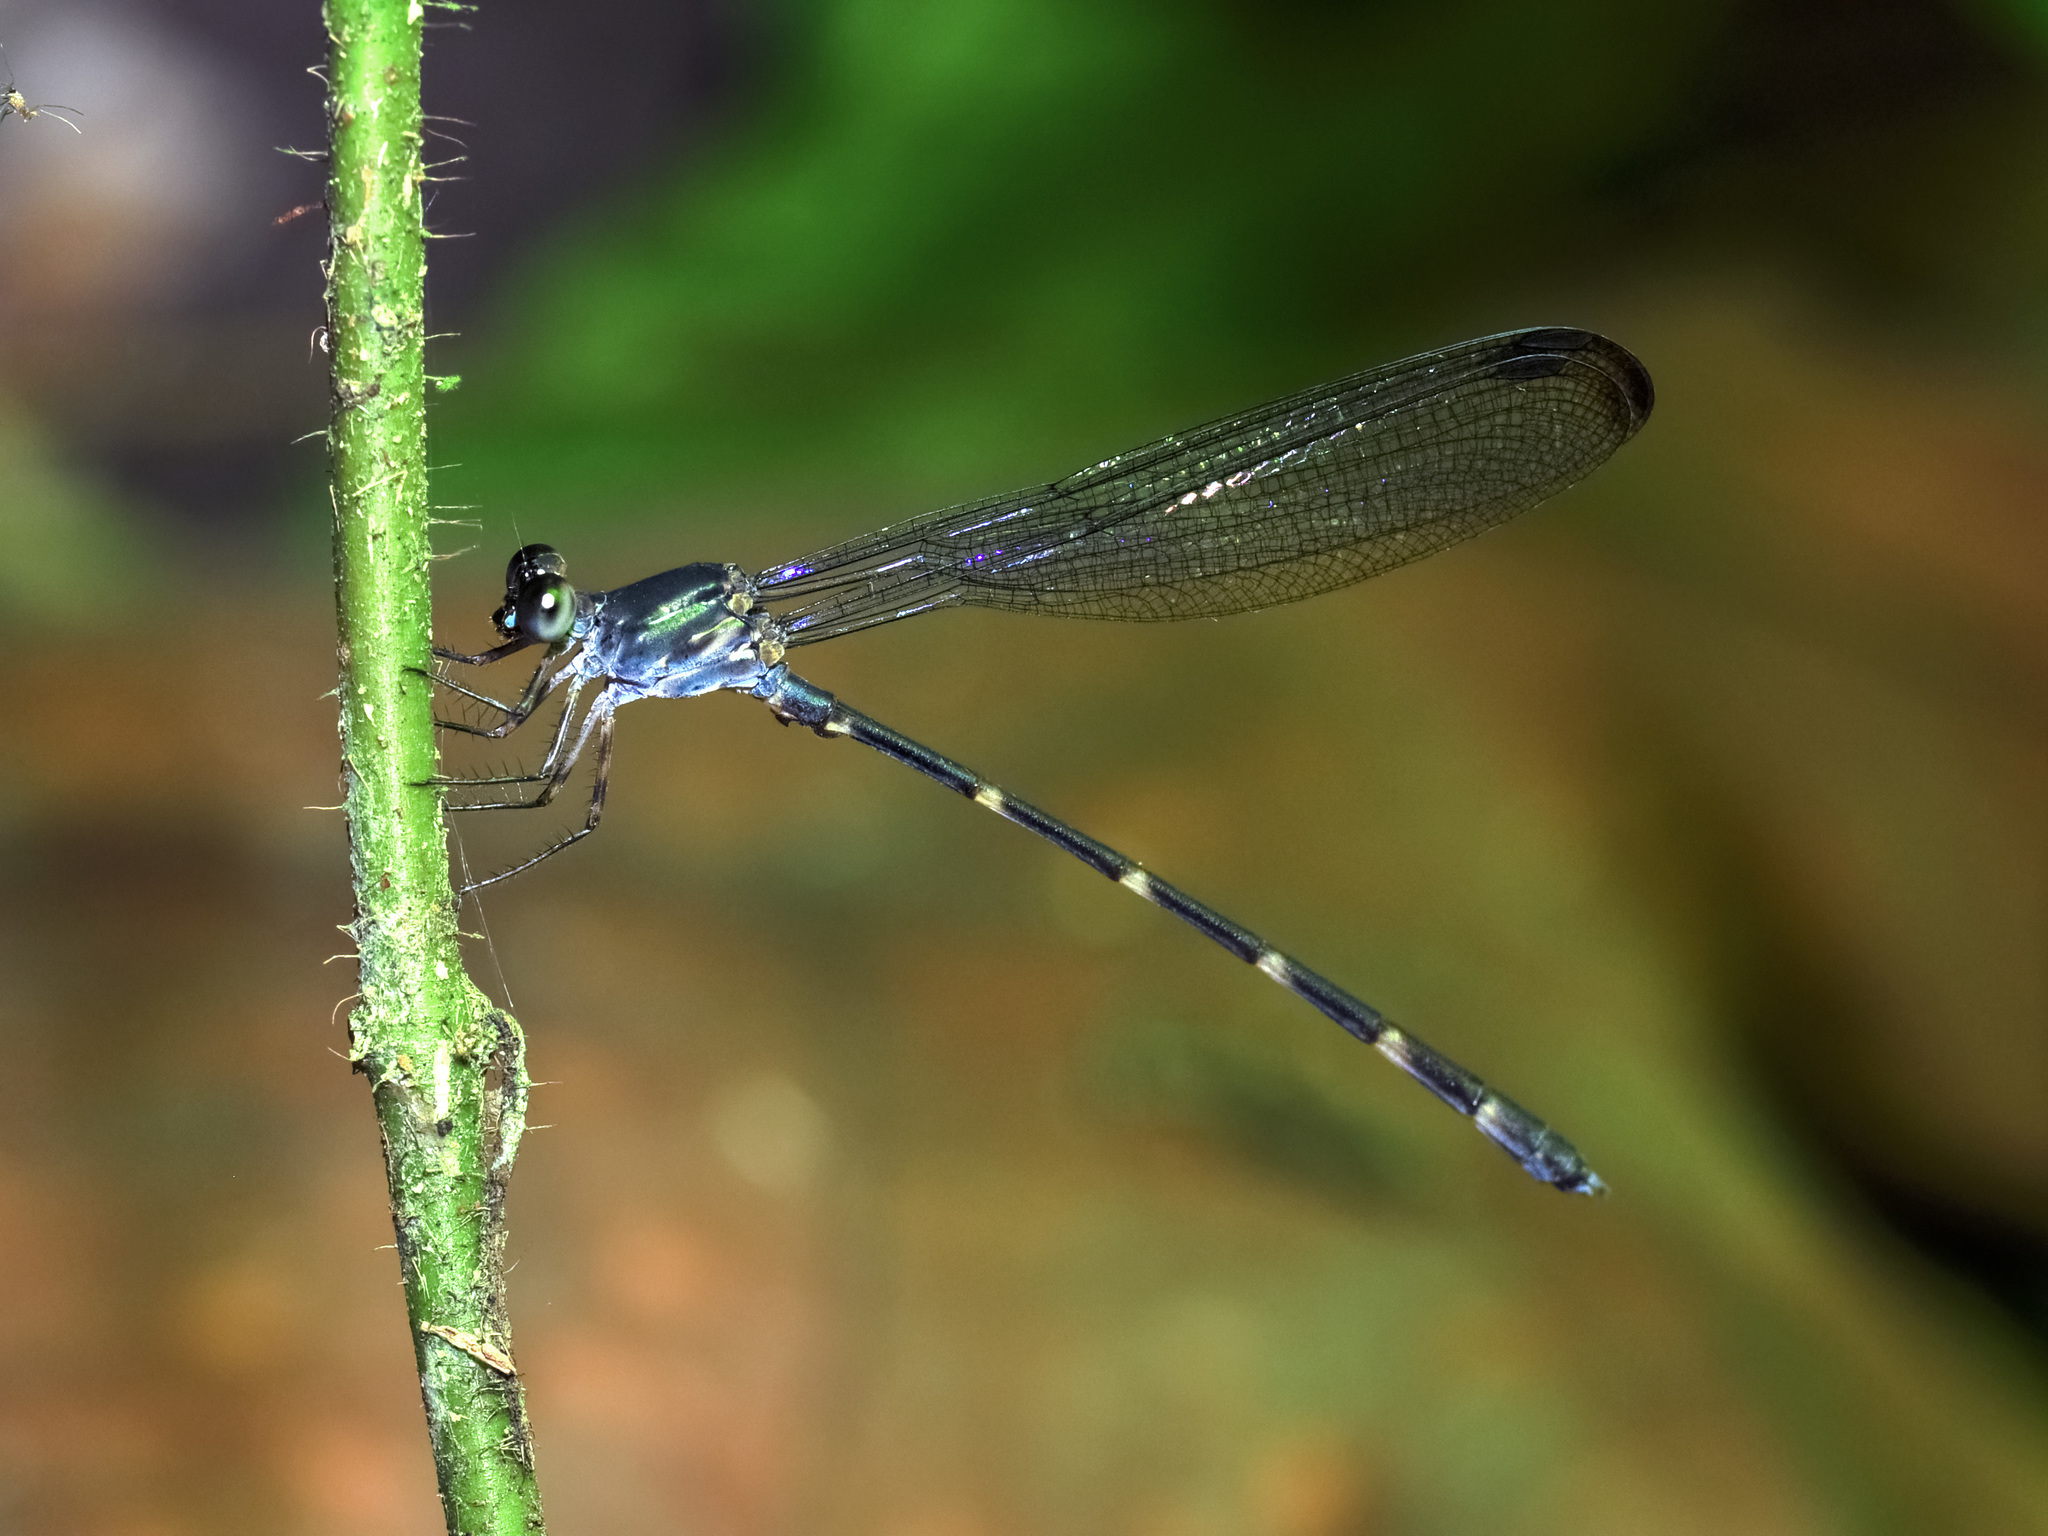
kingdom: Animalia
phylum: Arthropoda
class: Insecta
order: Odonata
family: Devadattidae
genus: Devadatta
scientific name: Devadatta argyoides
